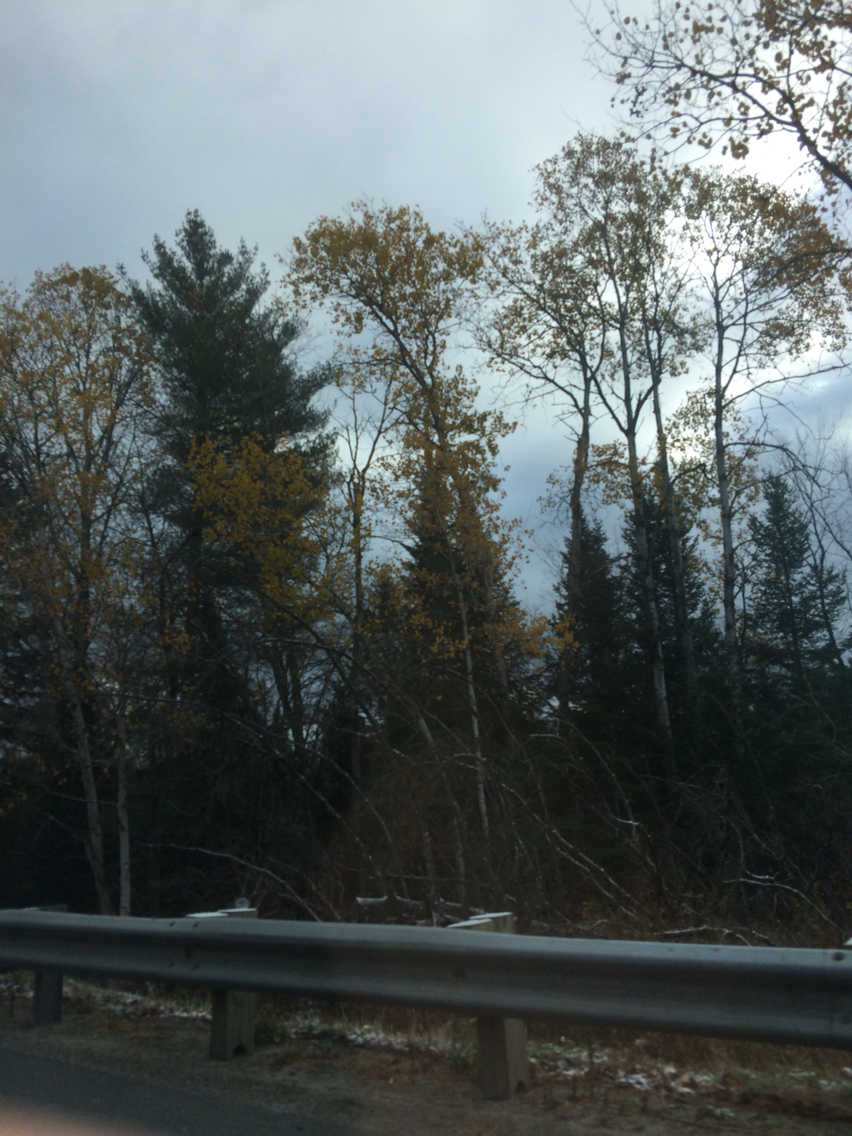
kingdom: Plantae
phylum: Tracheophyta
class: Magnoliopsida
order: Malpighiales
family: Salicaceae
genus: Populus
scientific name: Populus tremuloides
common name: Quaking aspen
